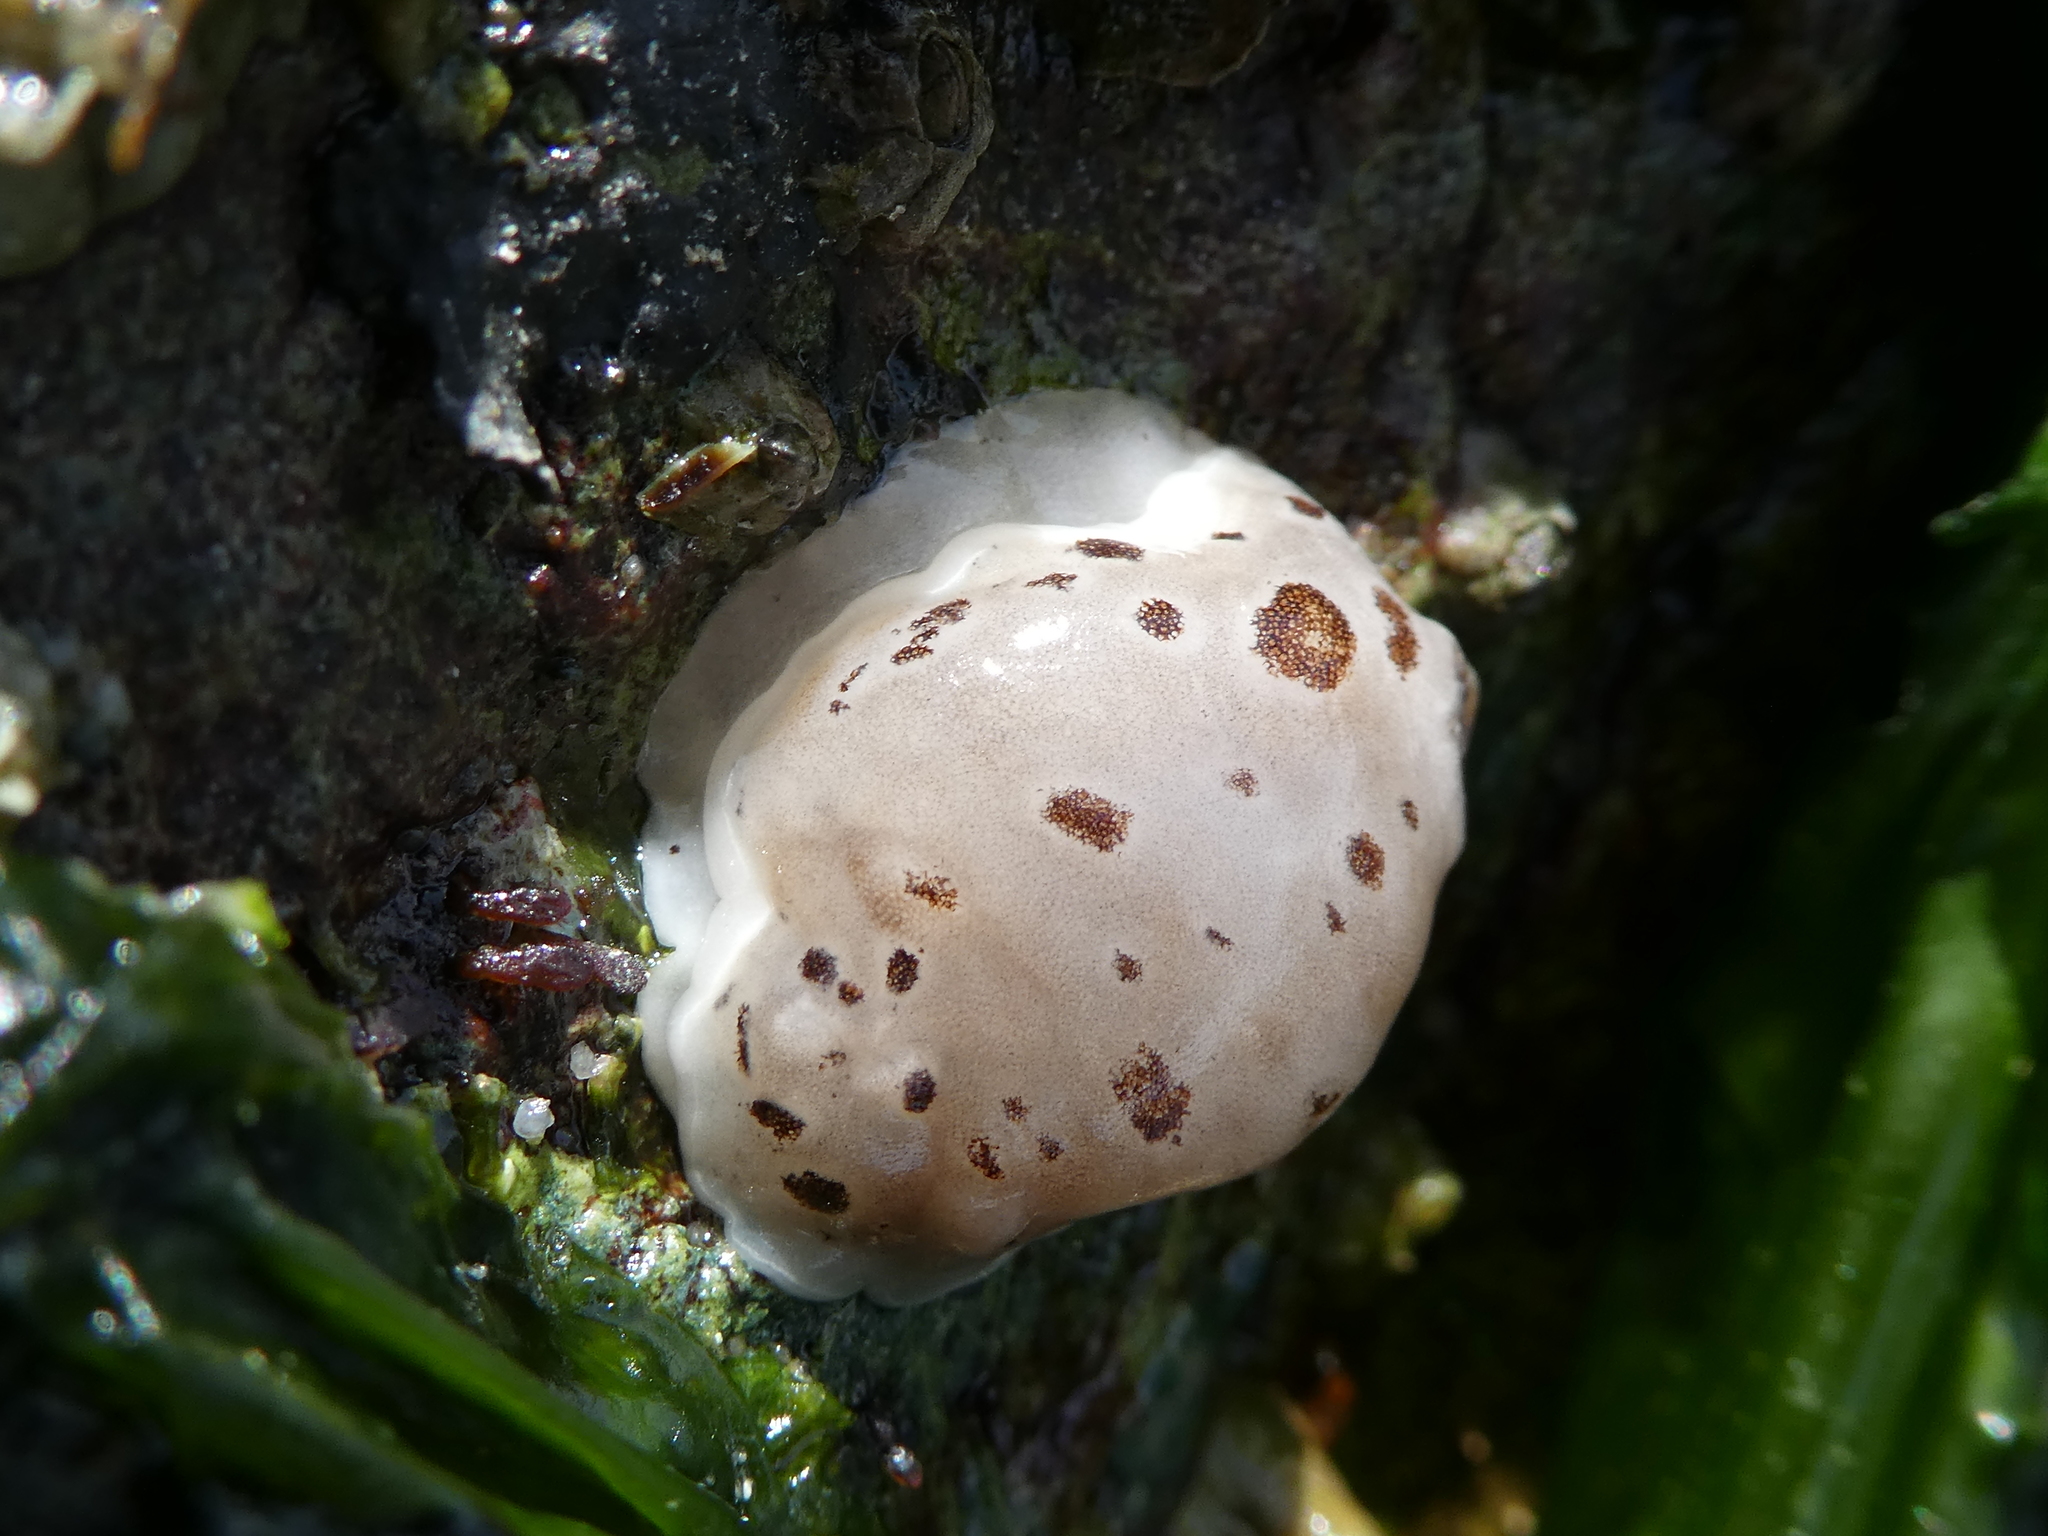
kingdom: Animalia
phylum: Mollusca
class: Gastropoda
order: Nudibranchia
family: Discodorididae
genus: Diaulula
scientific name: Diaulula odonoghuei
